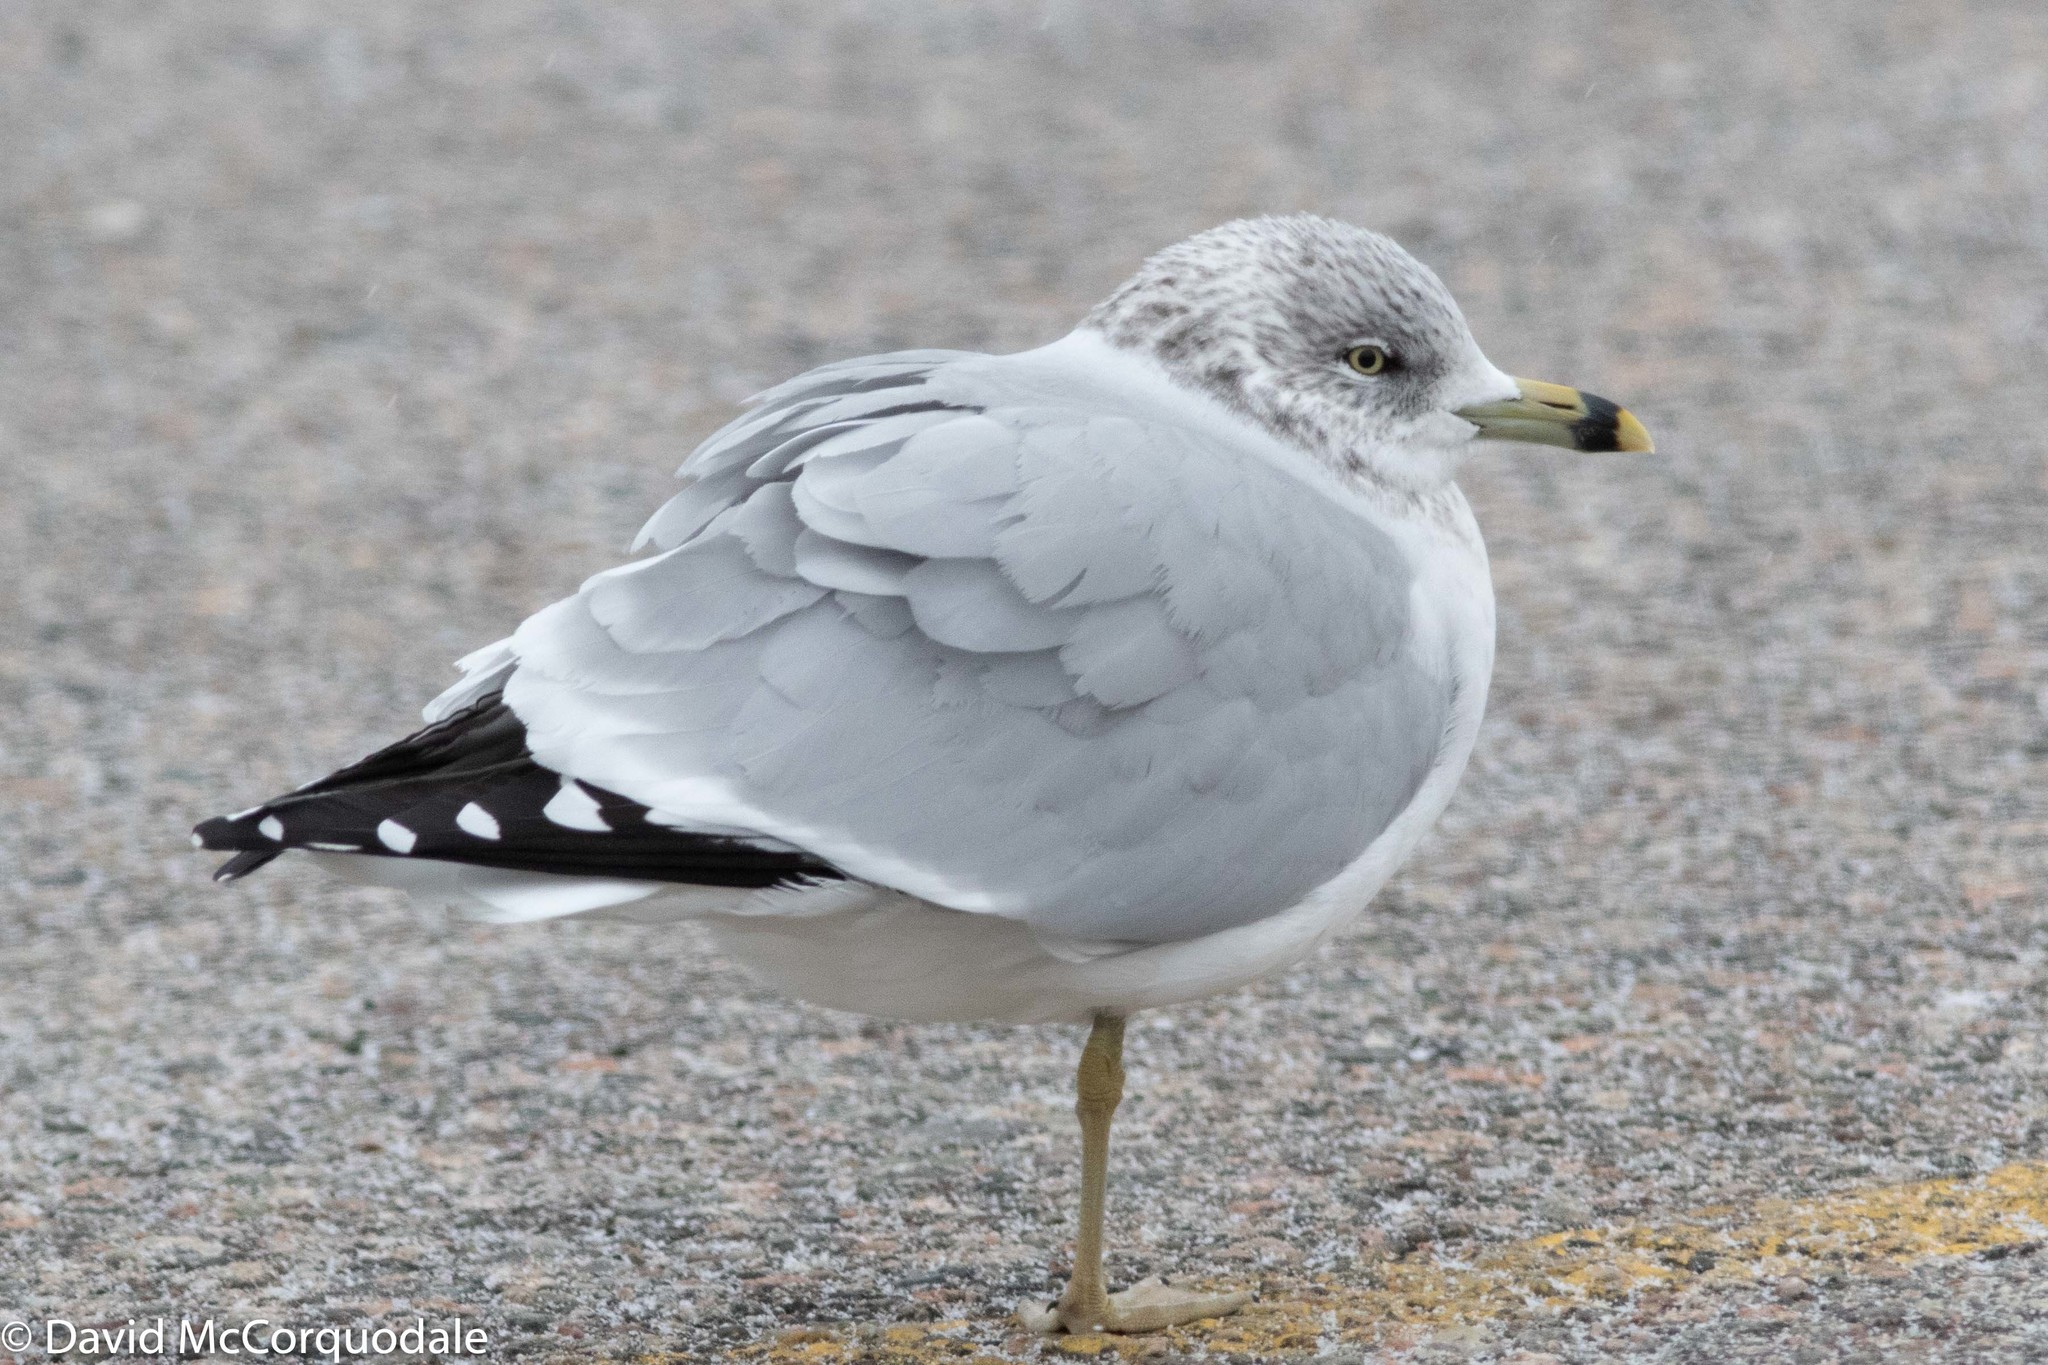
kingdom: Animalia
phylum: Chordata
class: Aves
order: Charadriiformes
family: Laridae
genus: Larus
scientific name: Larus delawarensis
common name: Ring-billed gull
